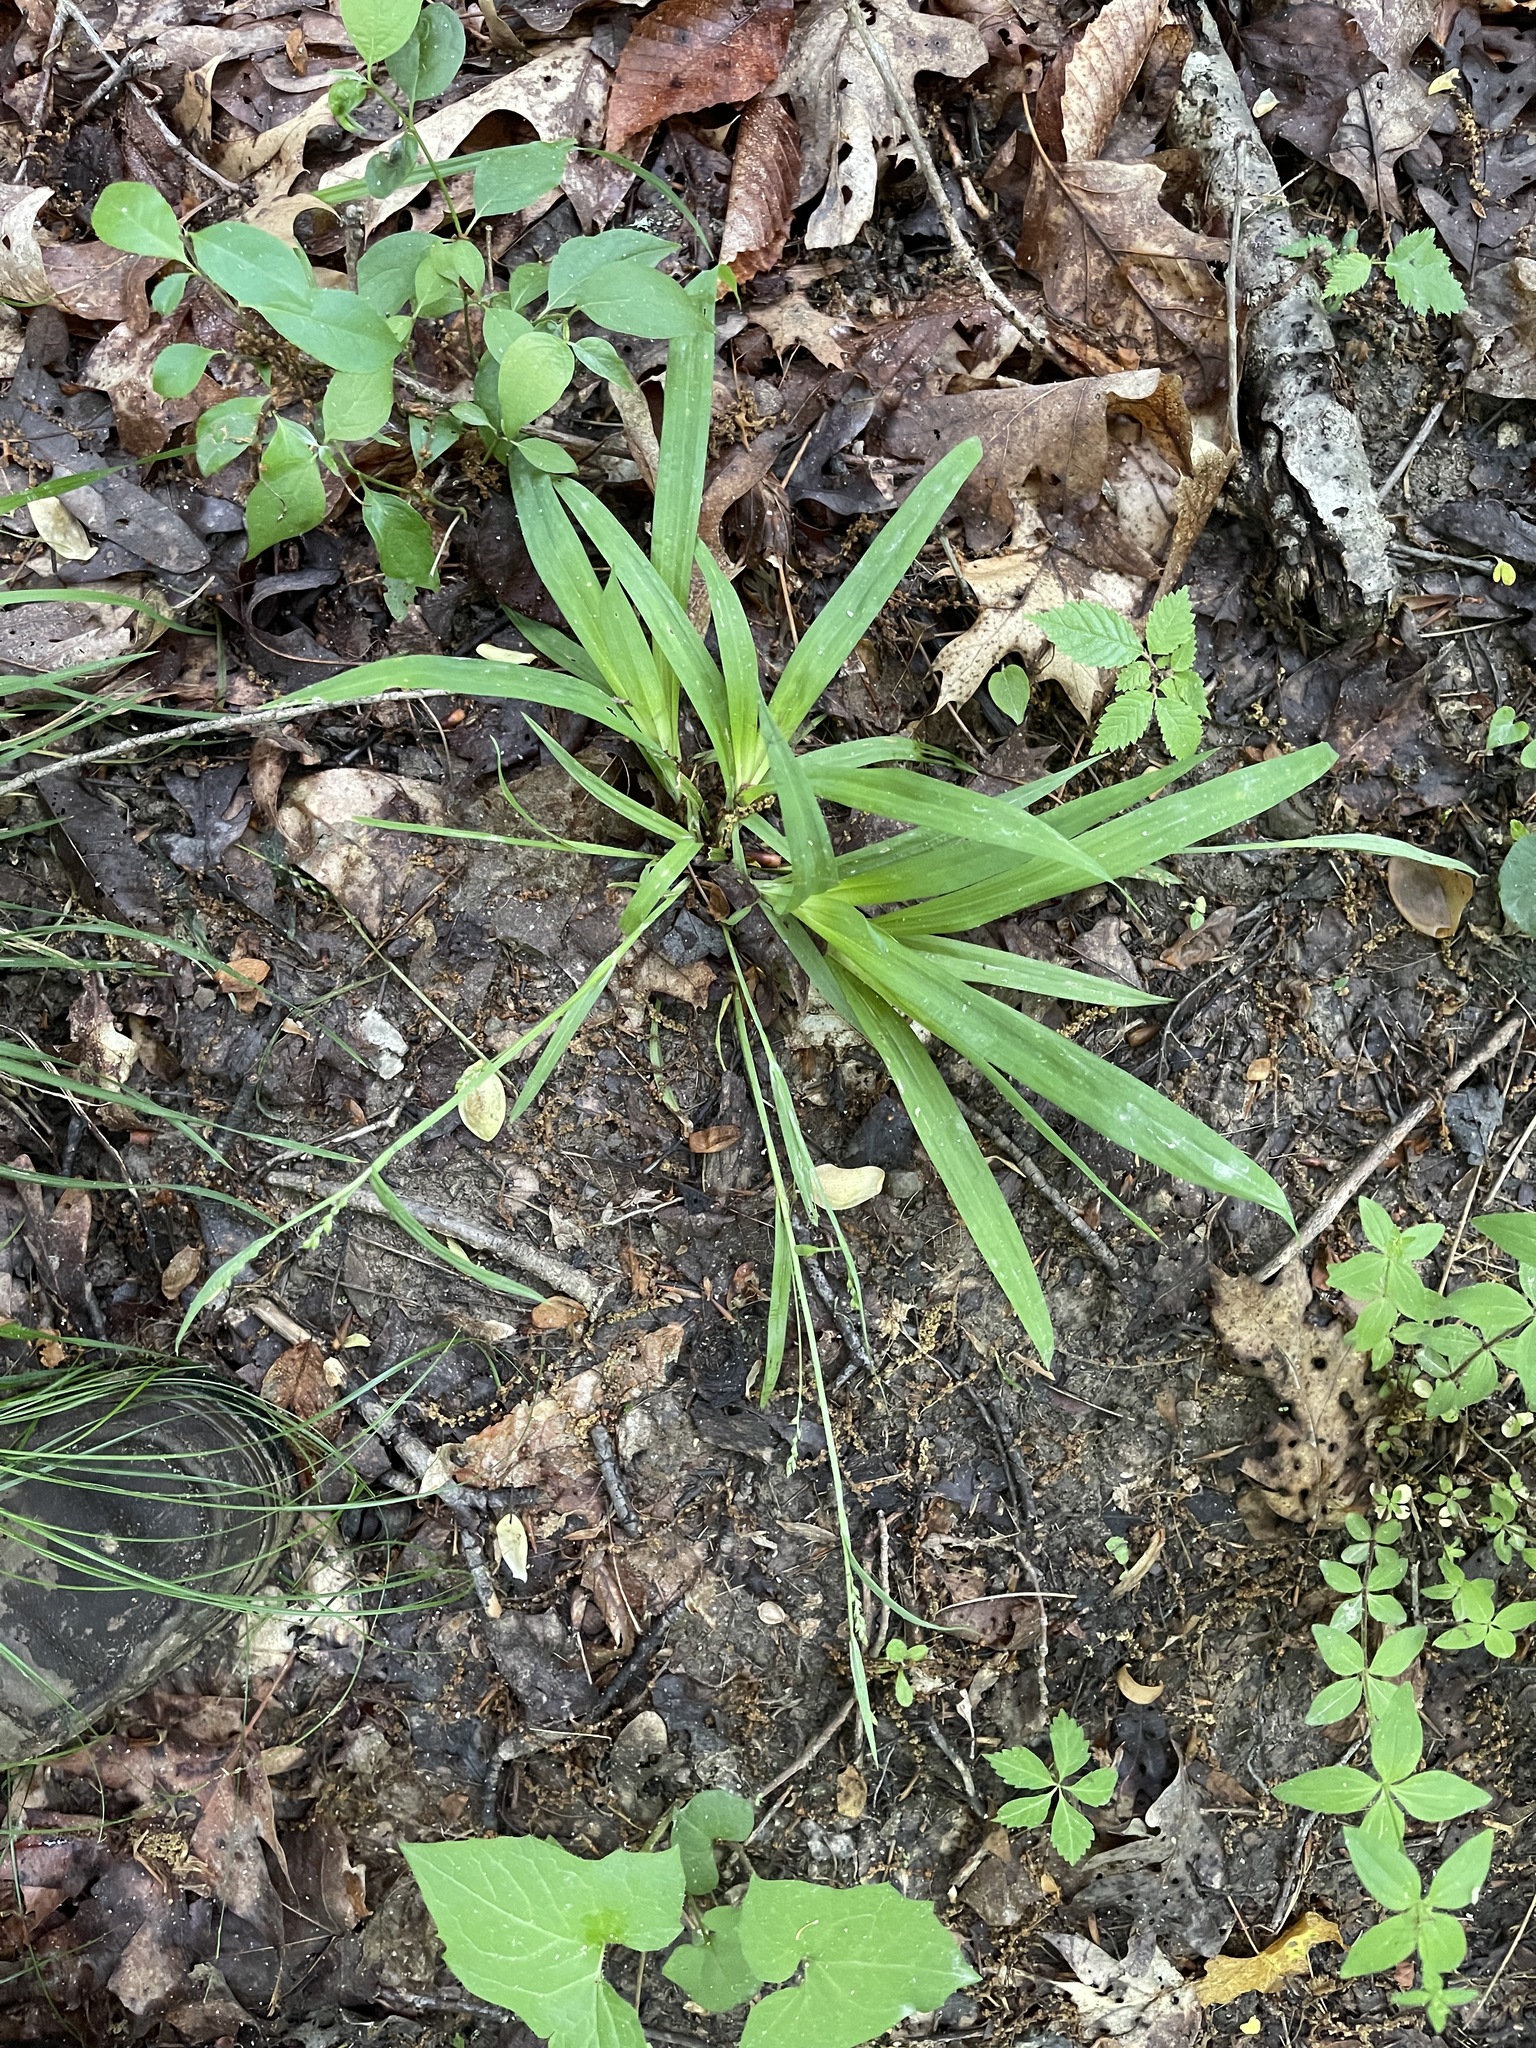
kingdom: Plantae
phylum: Tracheophyta
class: Liliopsida
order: Poales
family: Cyperaceae
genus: Carex
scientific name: Carex laxiflora
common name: Beech wood sedge
